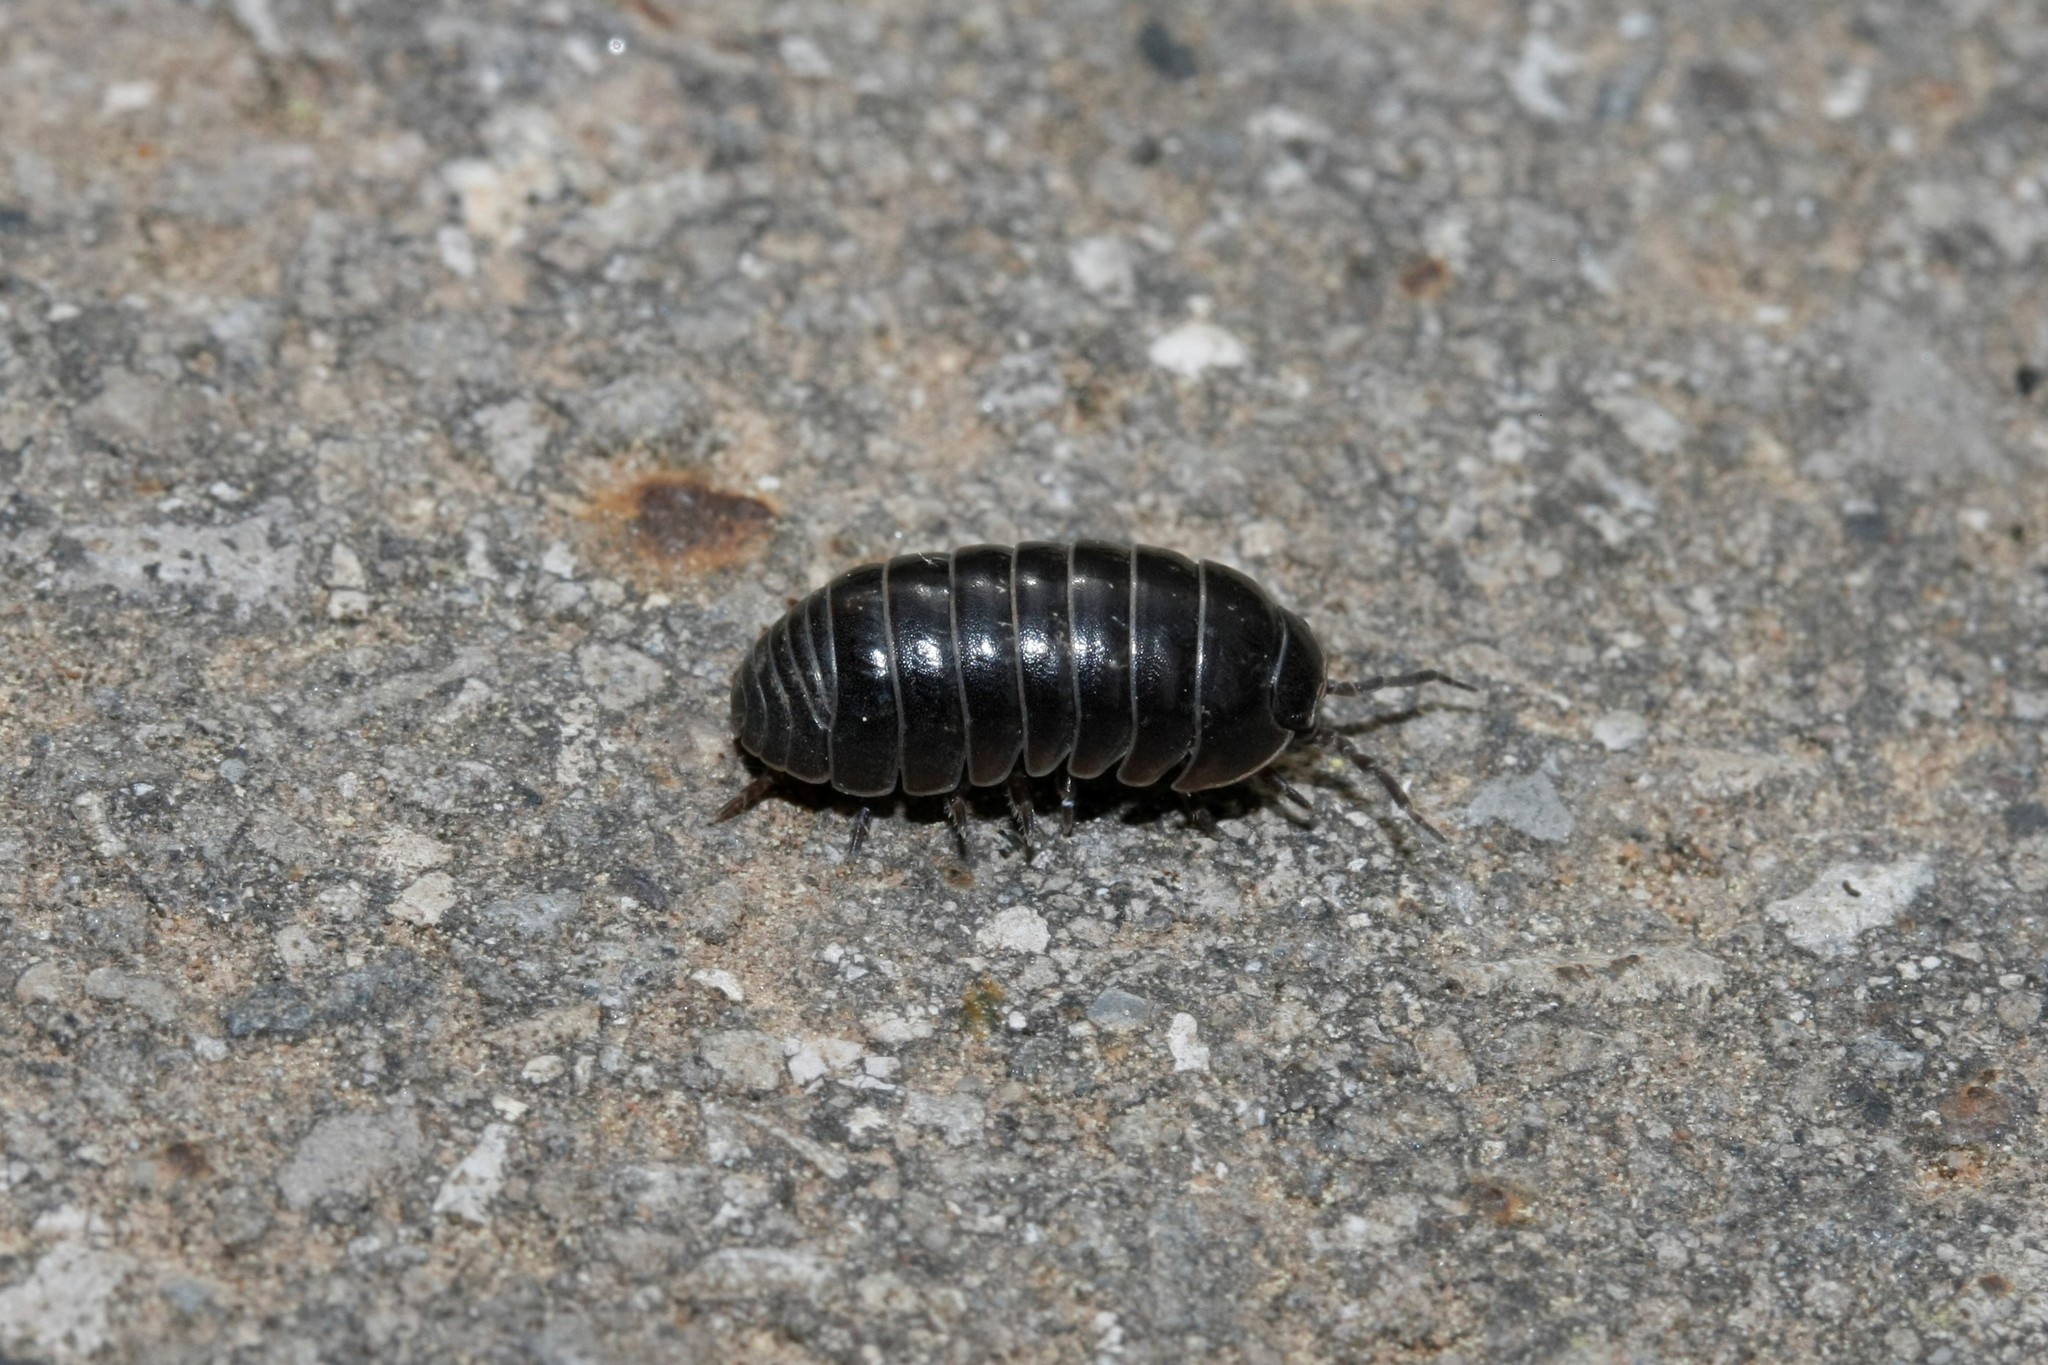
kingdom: Animalia
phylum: Arthropoda
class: Malacostraca
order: Isopoda
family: Armadillidiidae
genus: Armadillidium
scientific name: Armadillidium vulgare
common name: Common pill woodlouse
